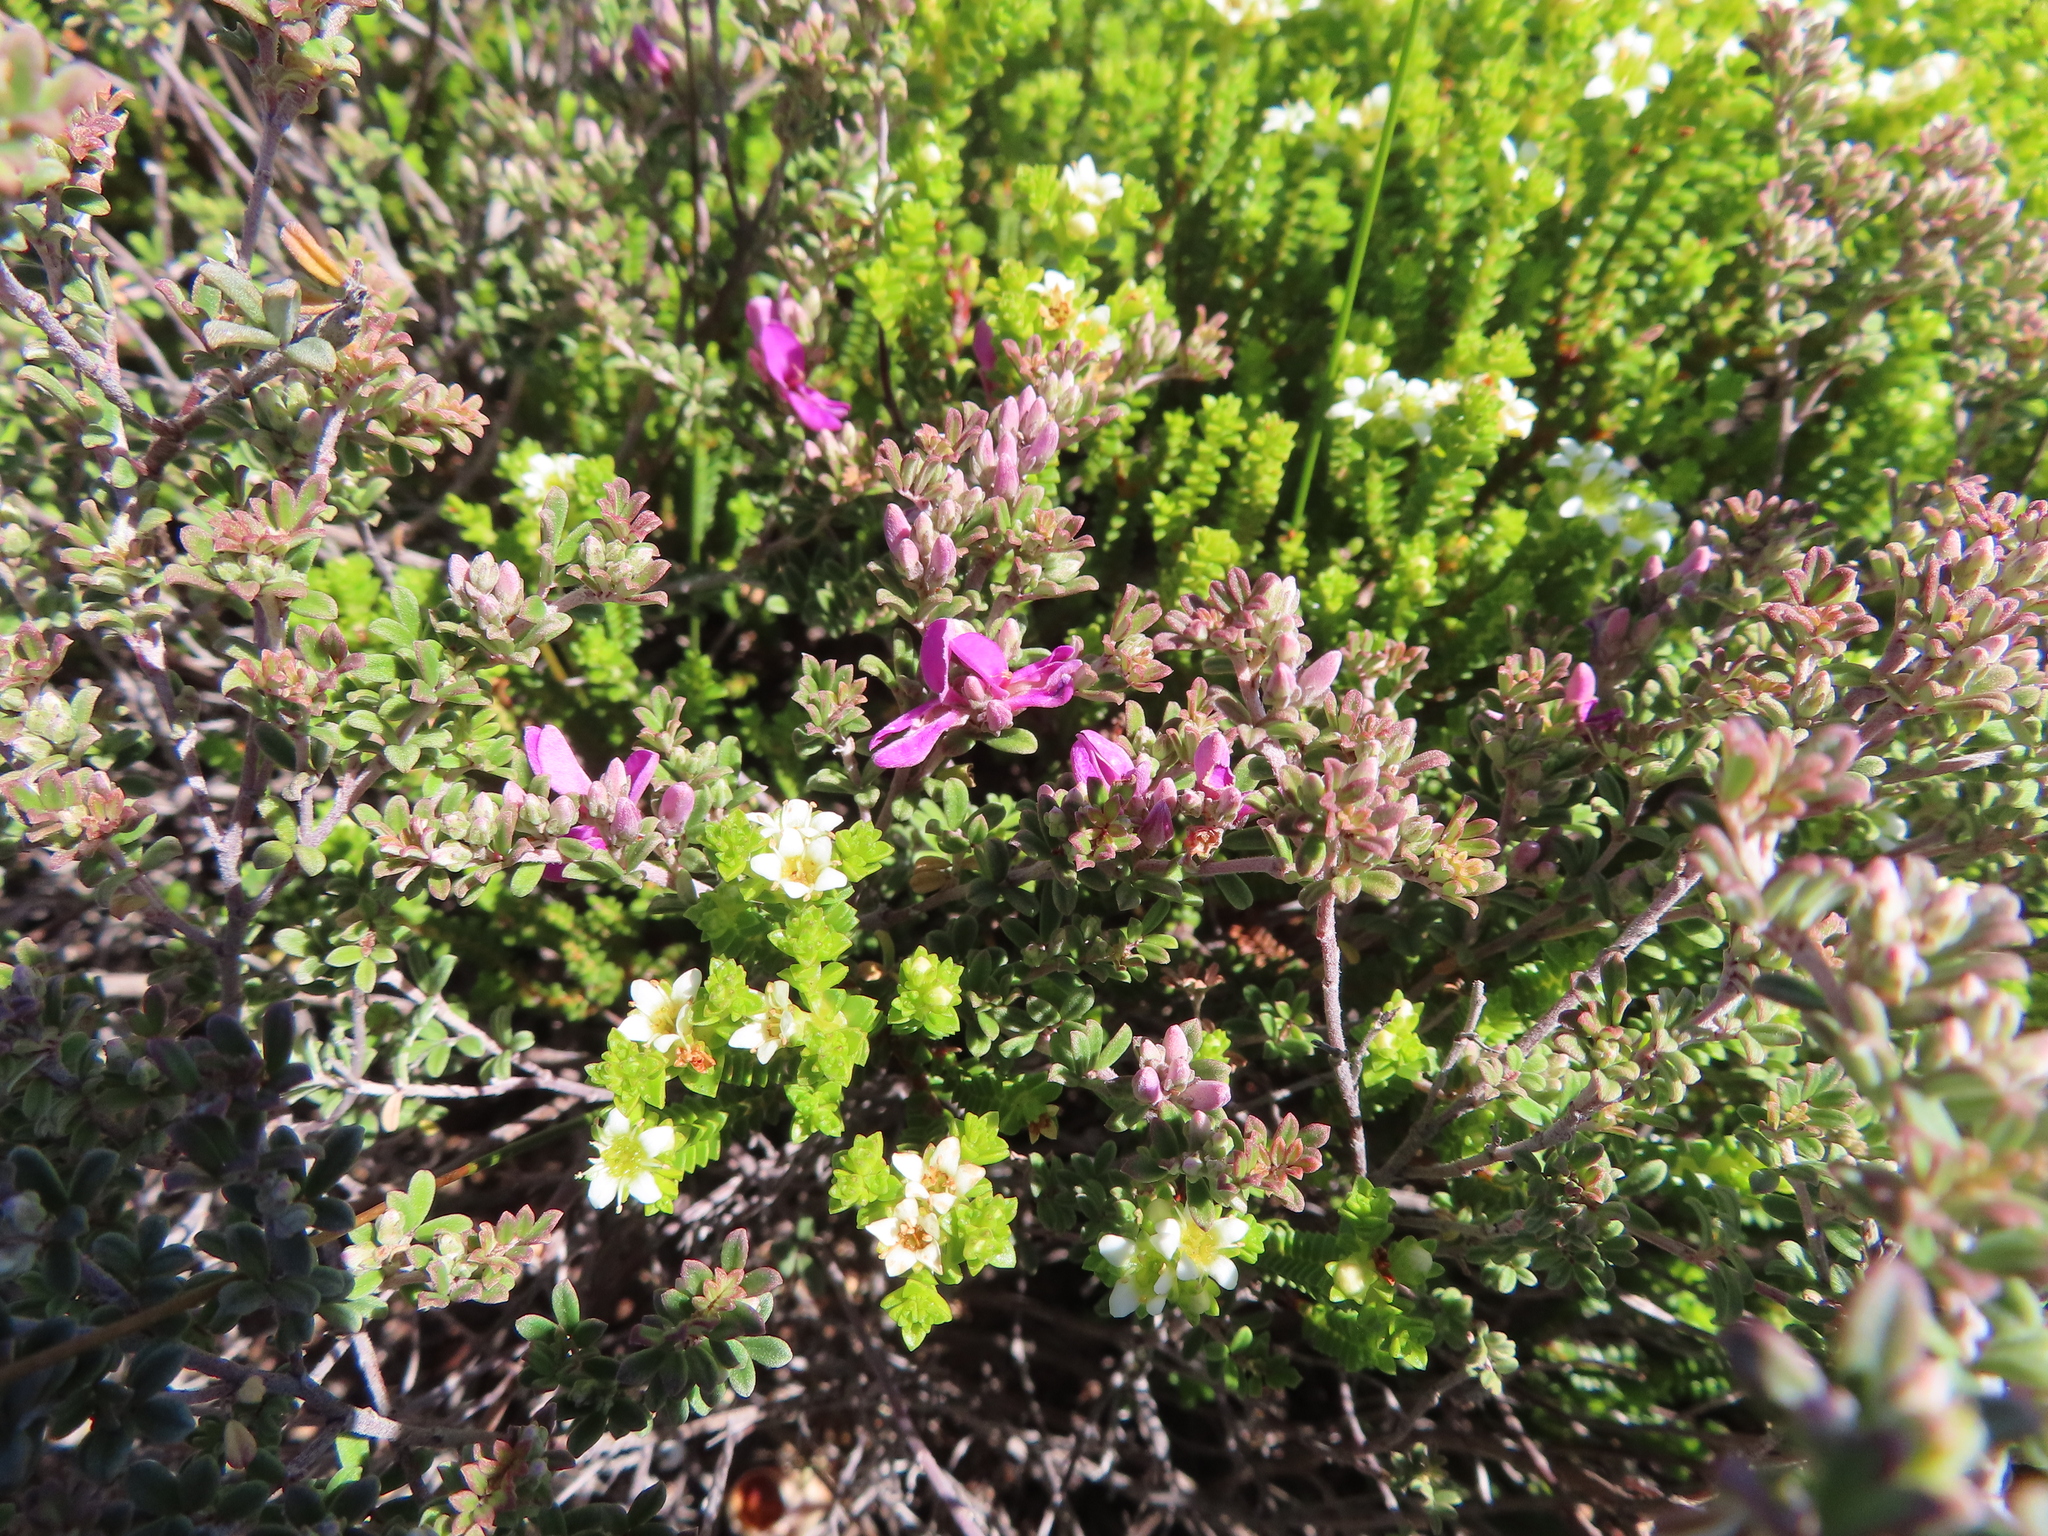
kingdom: Plantae
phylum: Tracheophyta
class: Magnoliopsida
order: Fabales
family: Fabaceae
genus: Indigofera
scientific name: Indigofera
